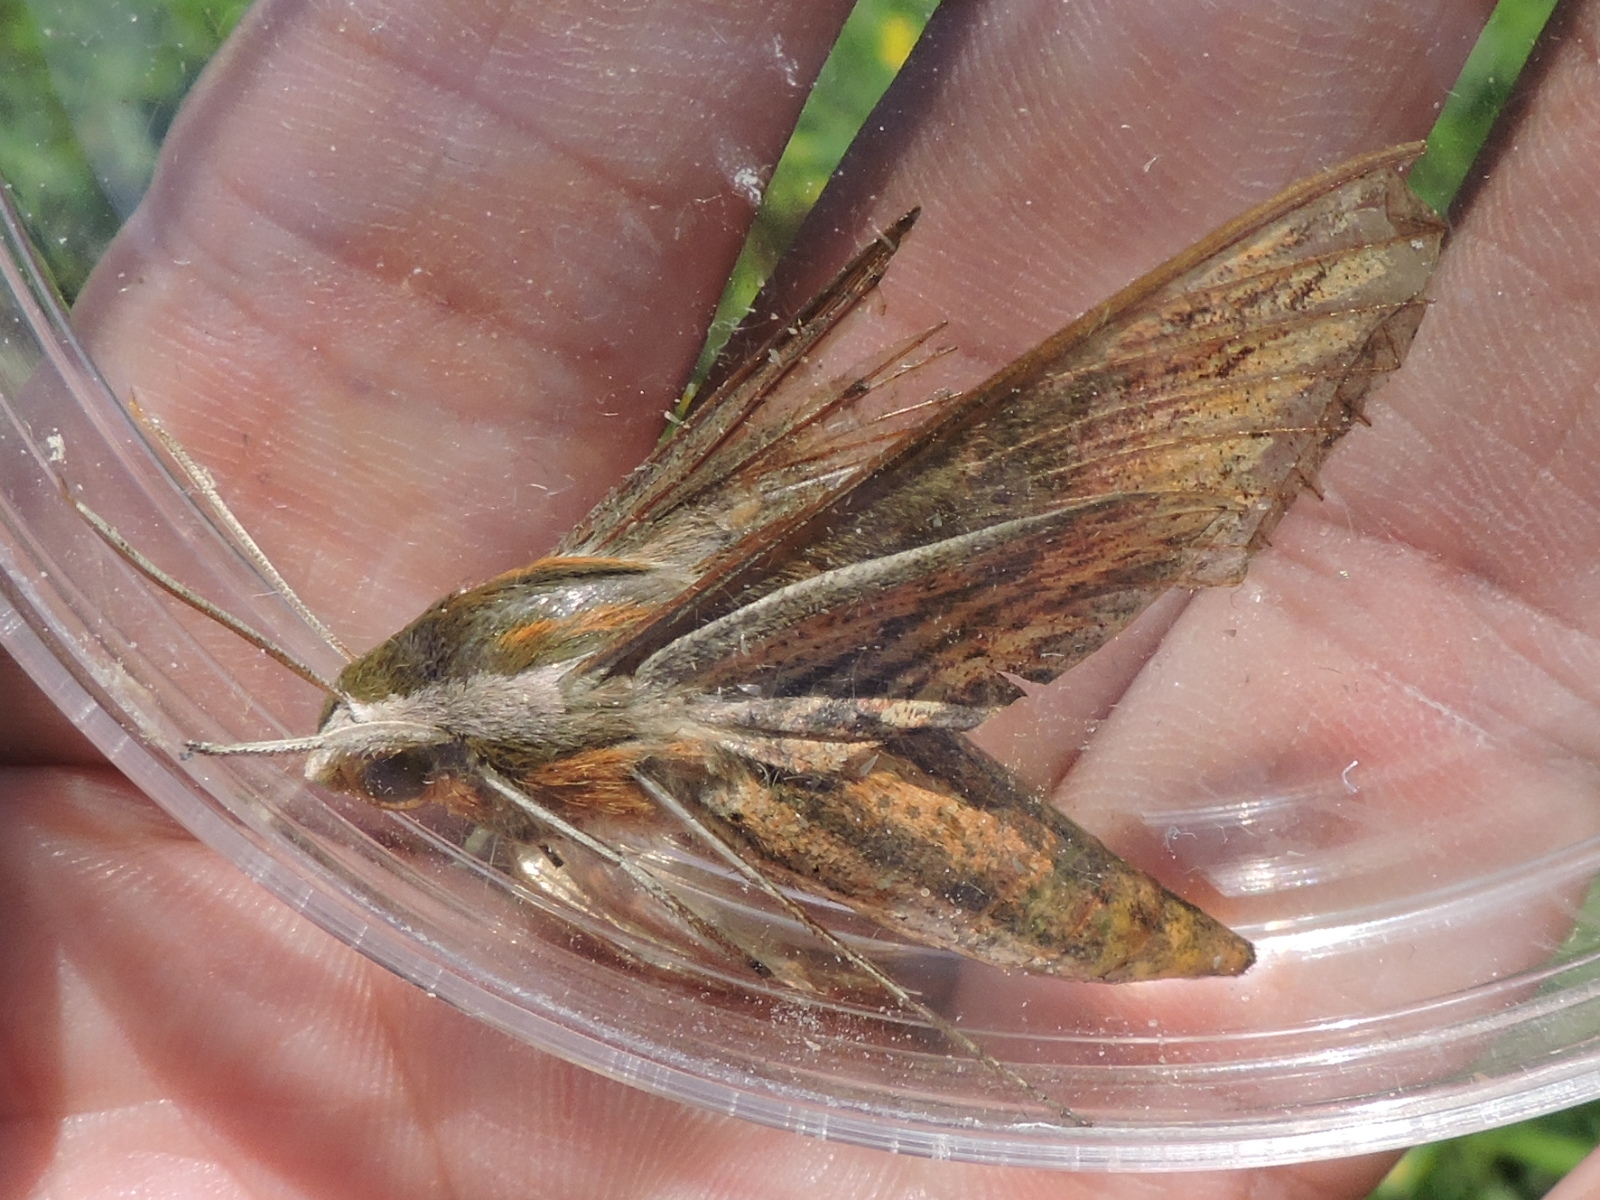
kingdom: Animalia
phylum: Arthropoda
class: Insecta
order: Lepidoptera
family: Sphingidae
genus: Xylophanes
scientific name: Xylophanes tersa
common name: Tersa sphinx
